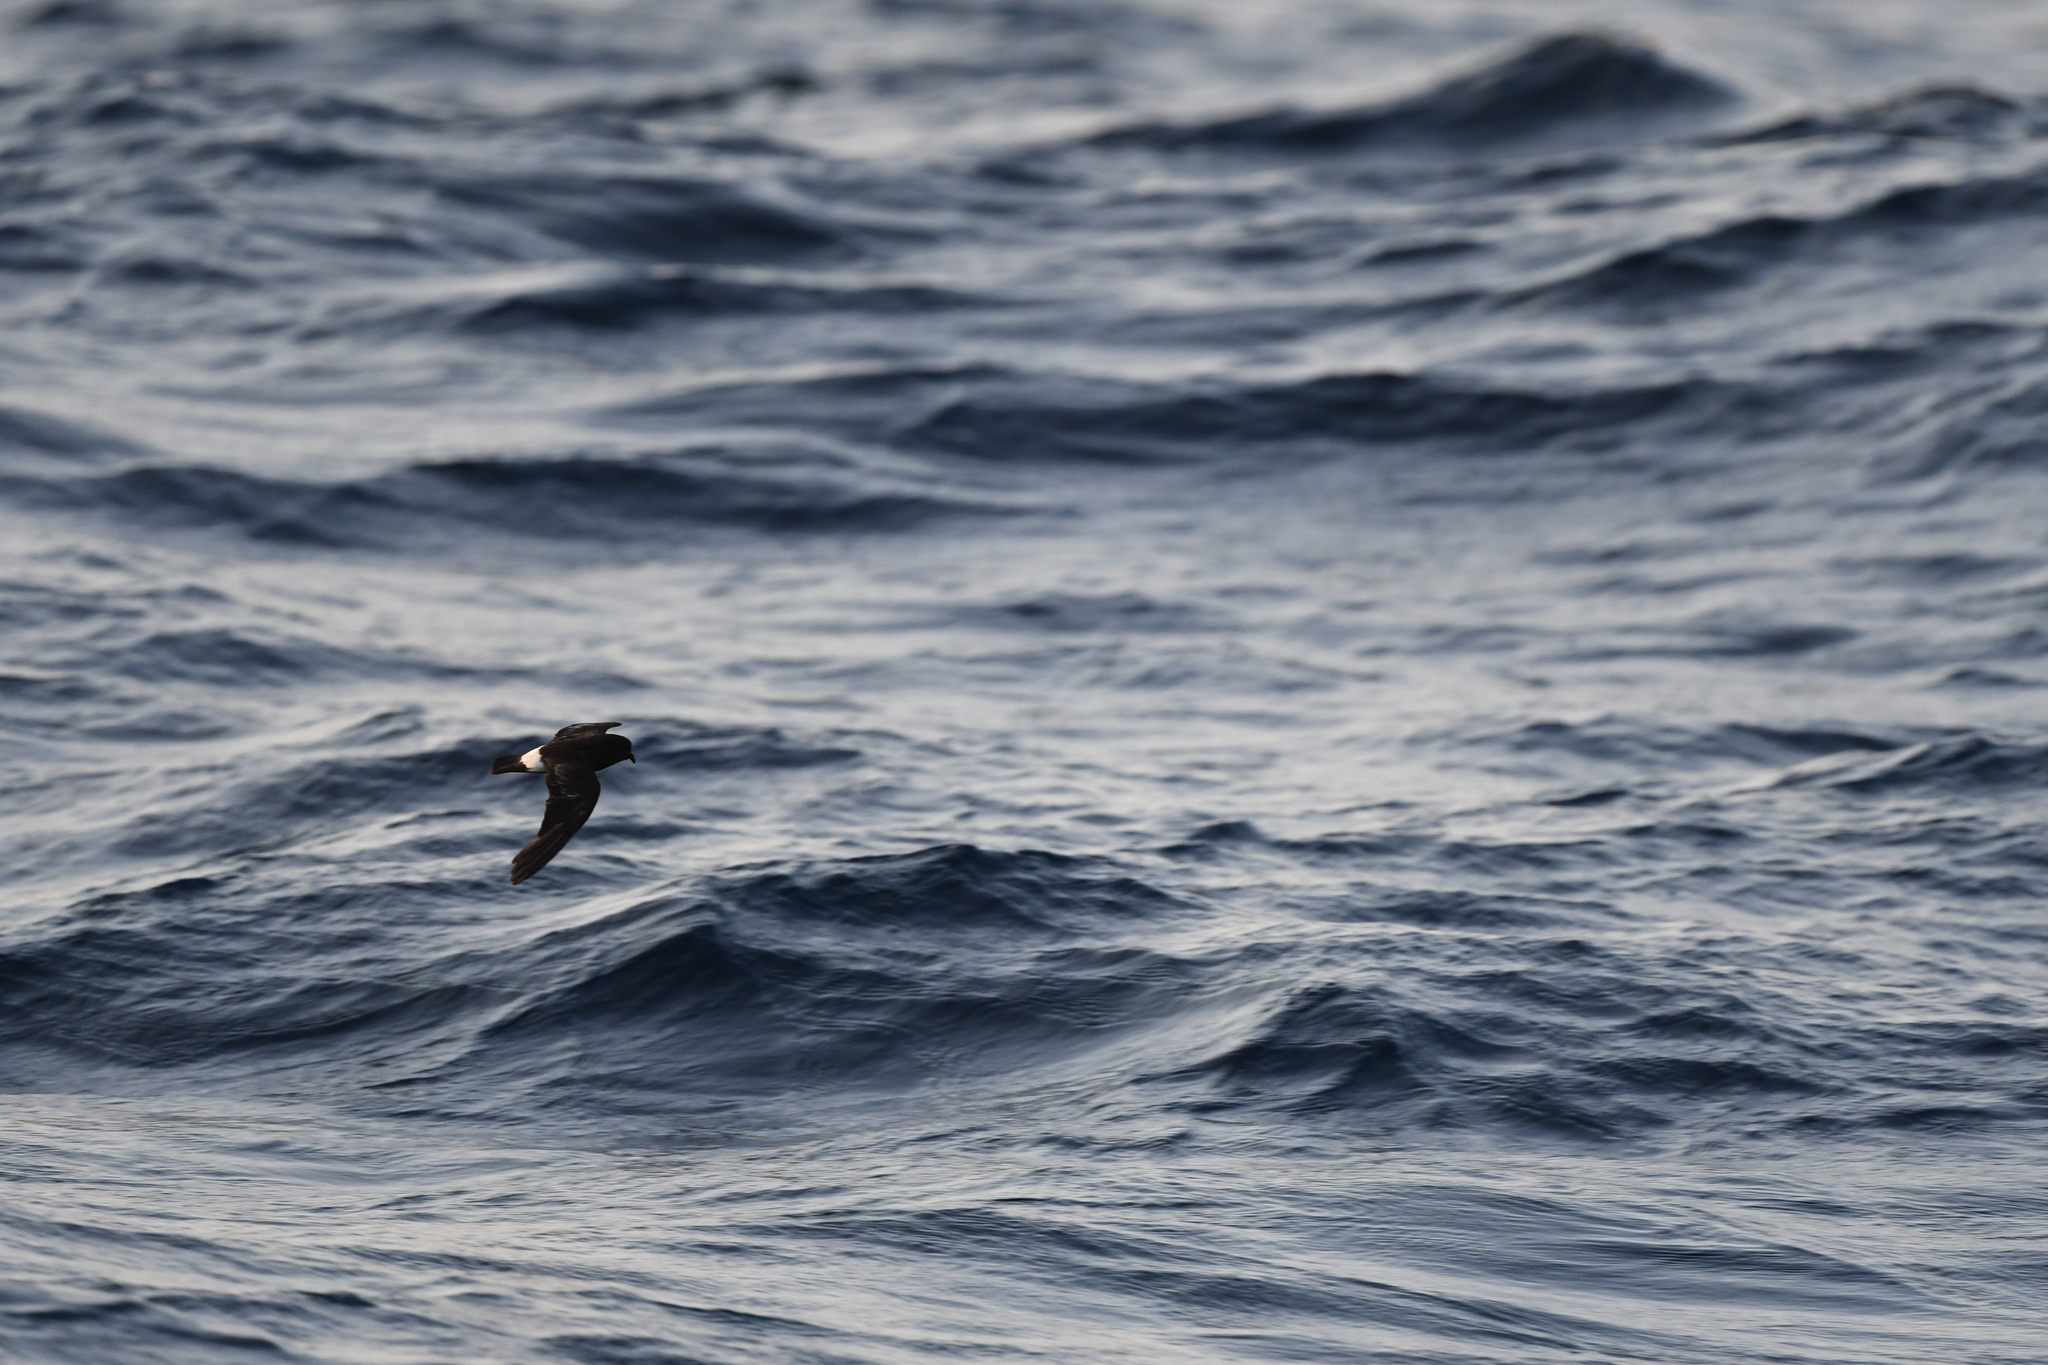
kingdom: Animalia
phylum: Chordata
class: Aves
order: Procellariiformes
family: Hydrobatidae
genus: Hydrobates
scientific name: Hydrobates pelagicus
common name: European storm-petrel
